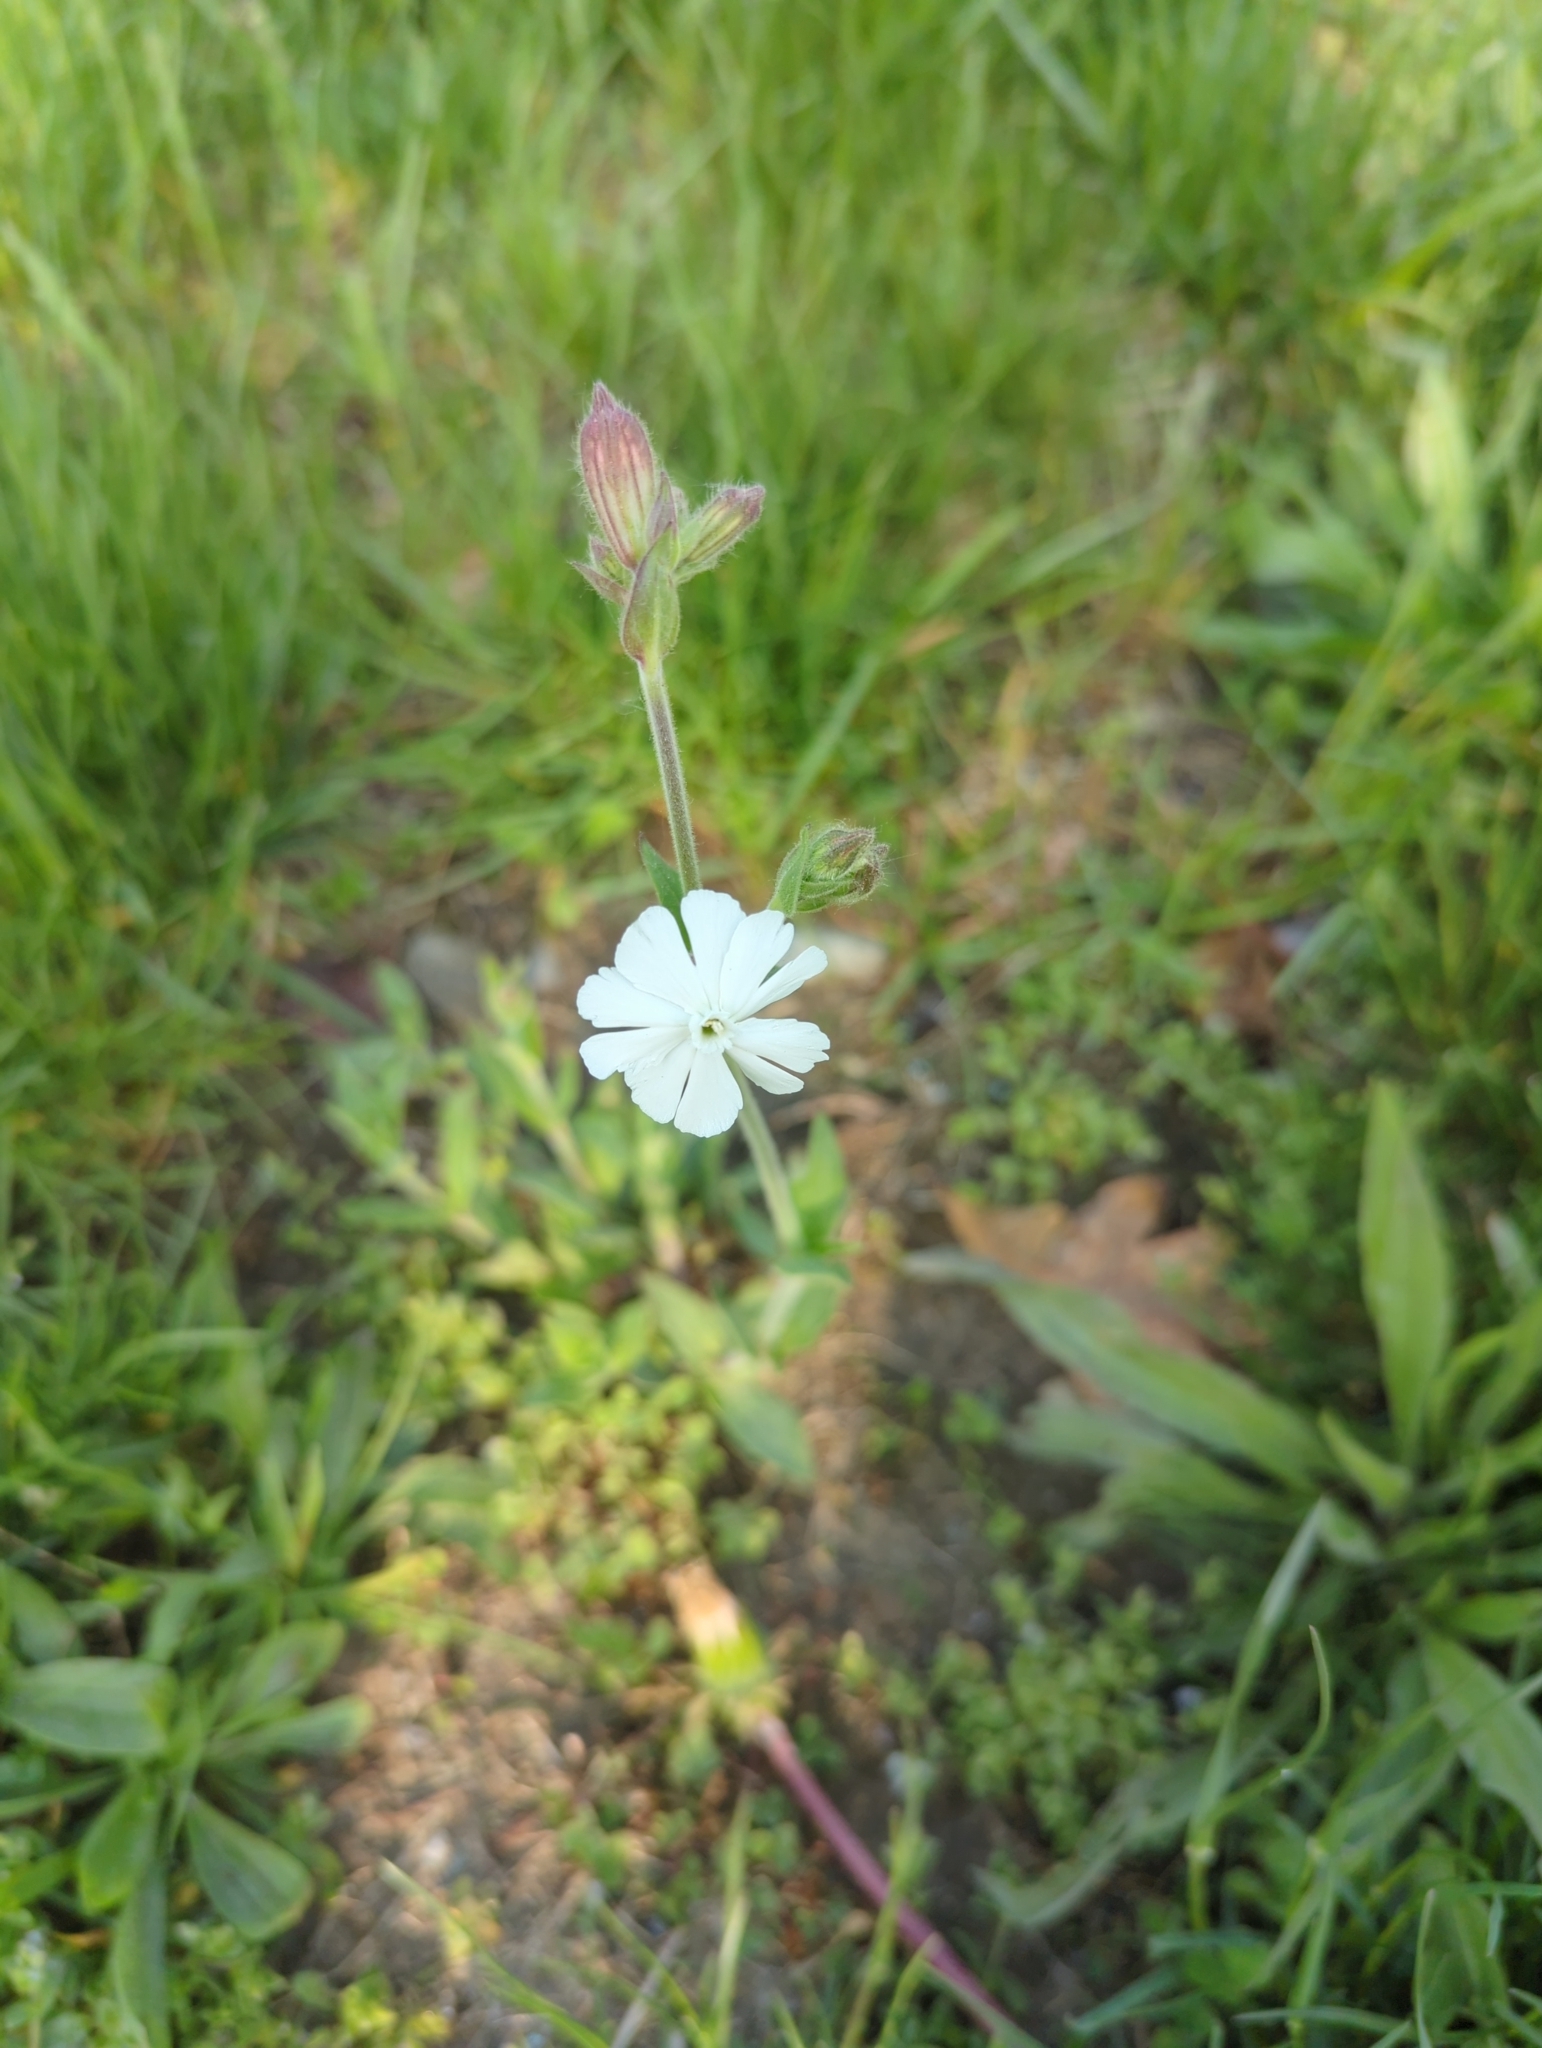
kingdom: Plantae
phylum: Tracheophyta
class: Magnoliopsida
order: Caryophyllales
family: Caryophyllaceae
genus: Silene
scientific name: Silene latifolia
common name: White campion
